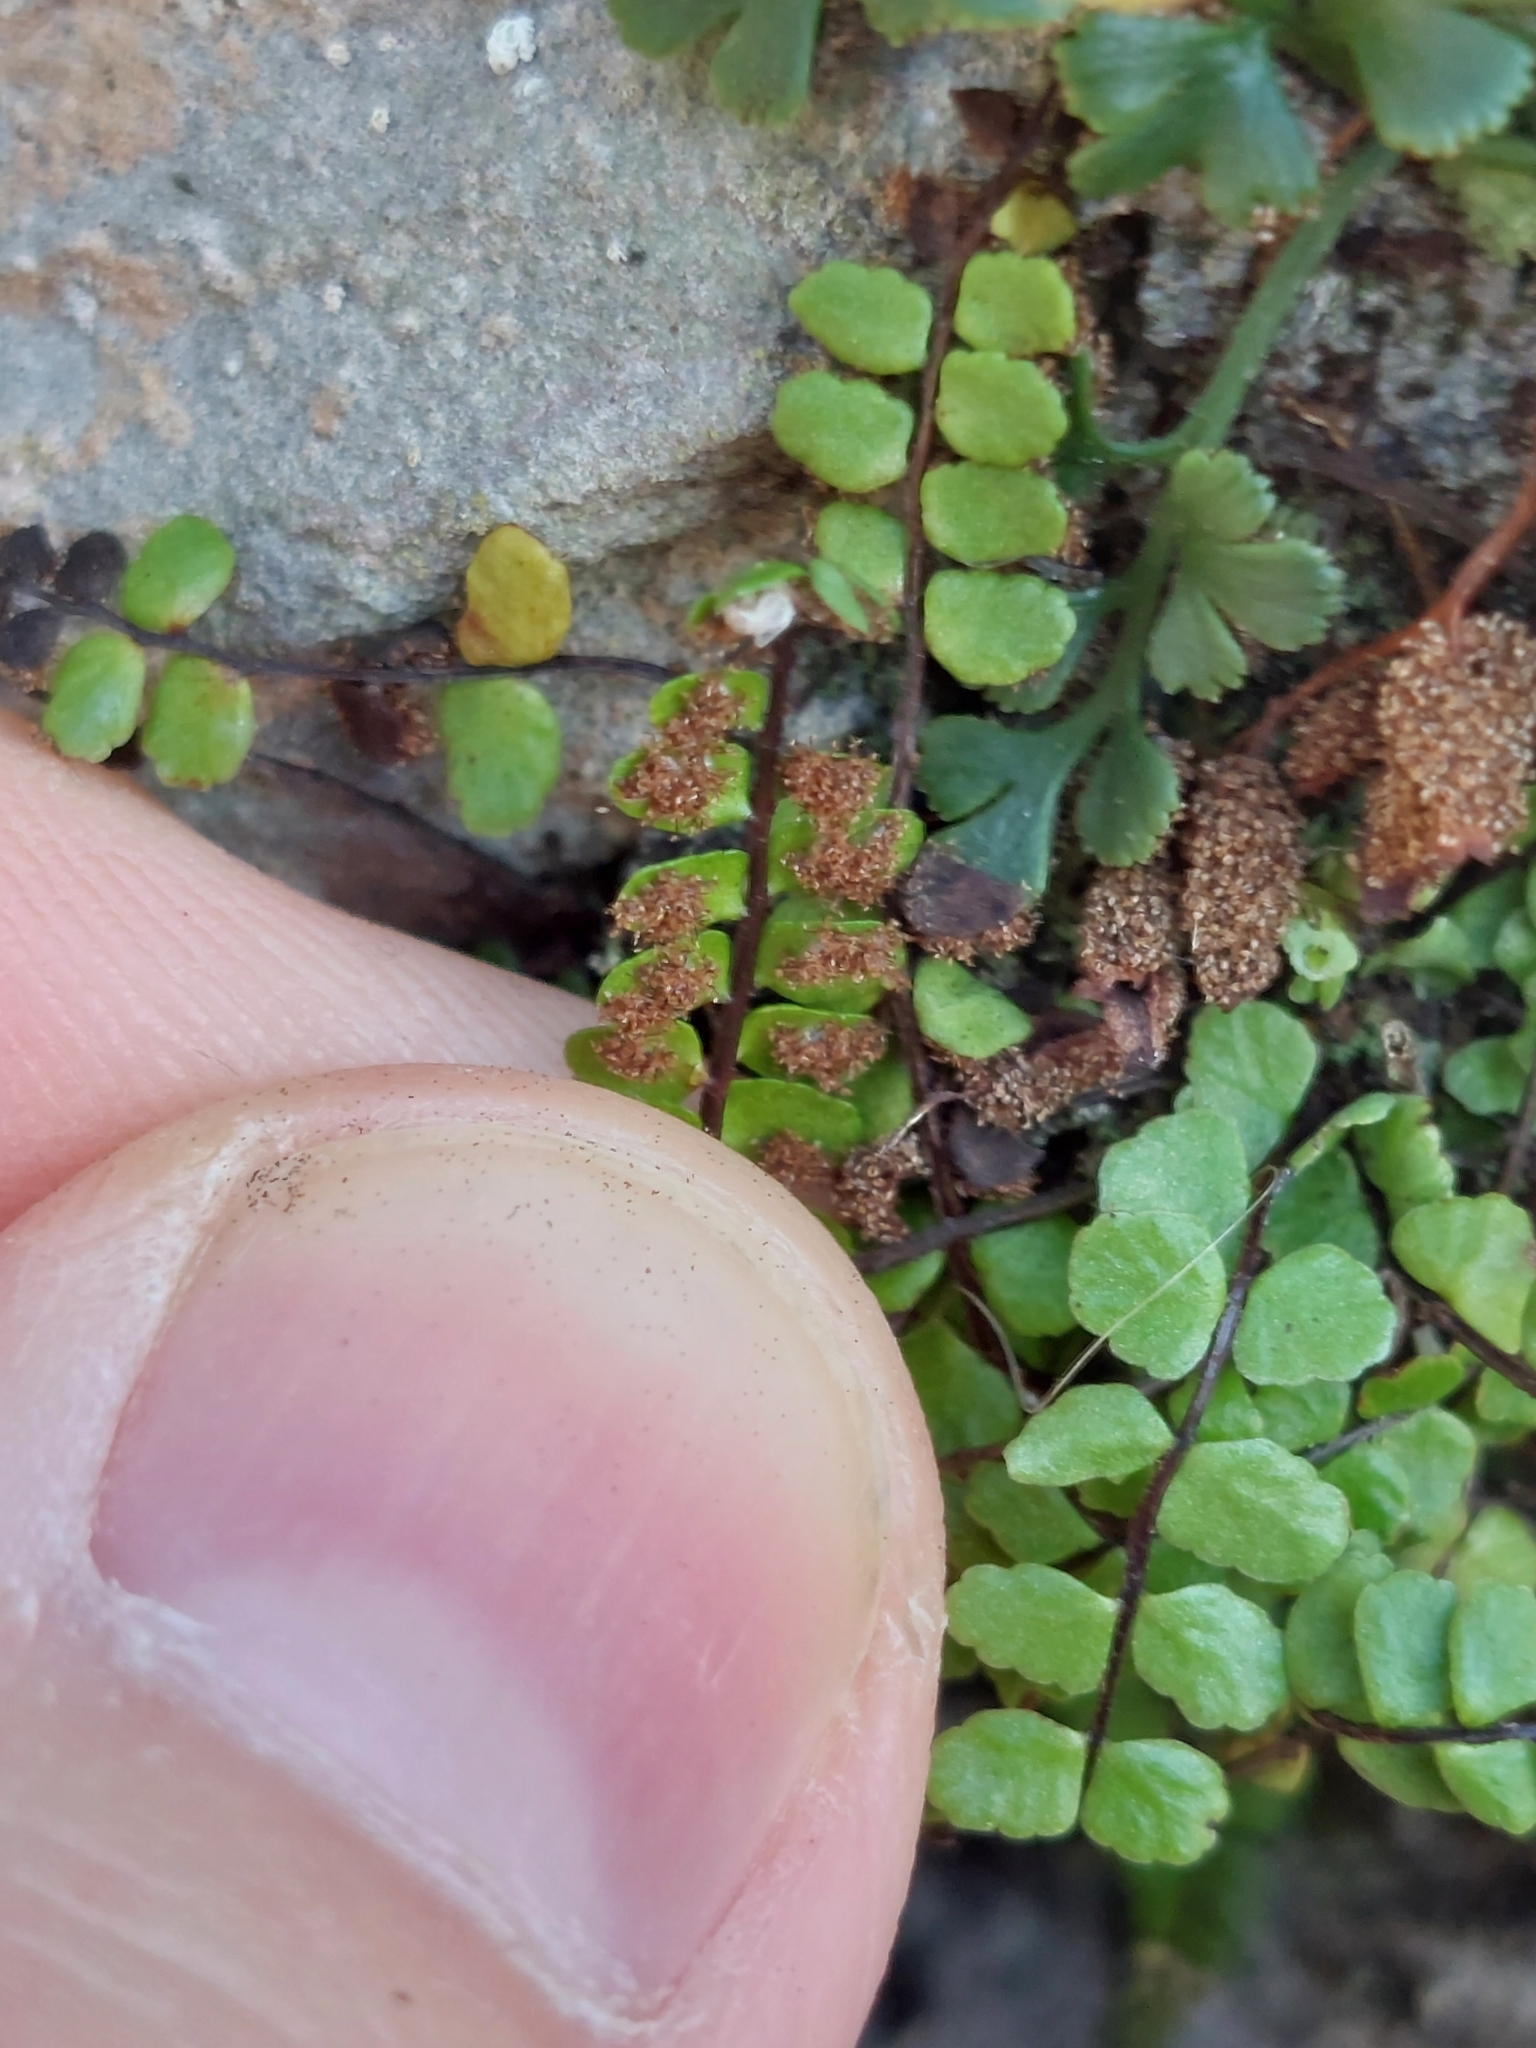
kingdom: Plantae
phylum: Tracheophyta
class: Polypodiopsida
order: Polypodiales
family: Aspleniaceae
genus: Asplenium
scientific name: Asplenium trichomanes
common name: Maidenhair spleenwort
